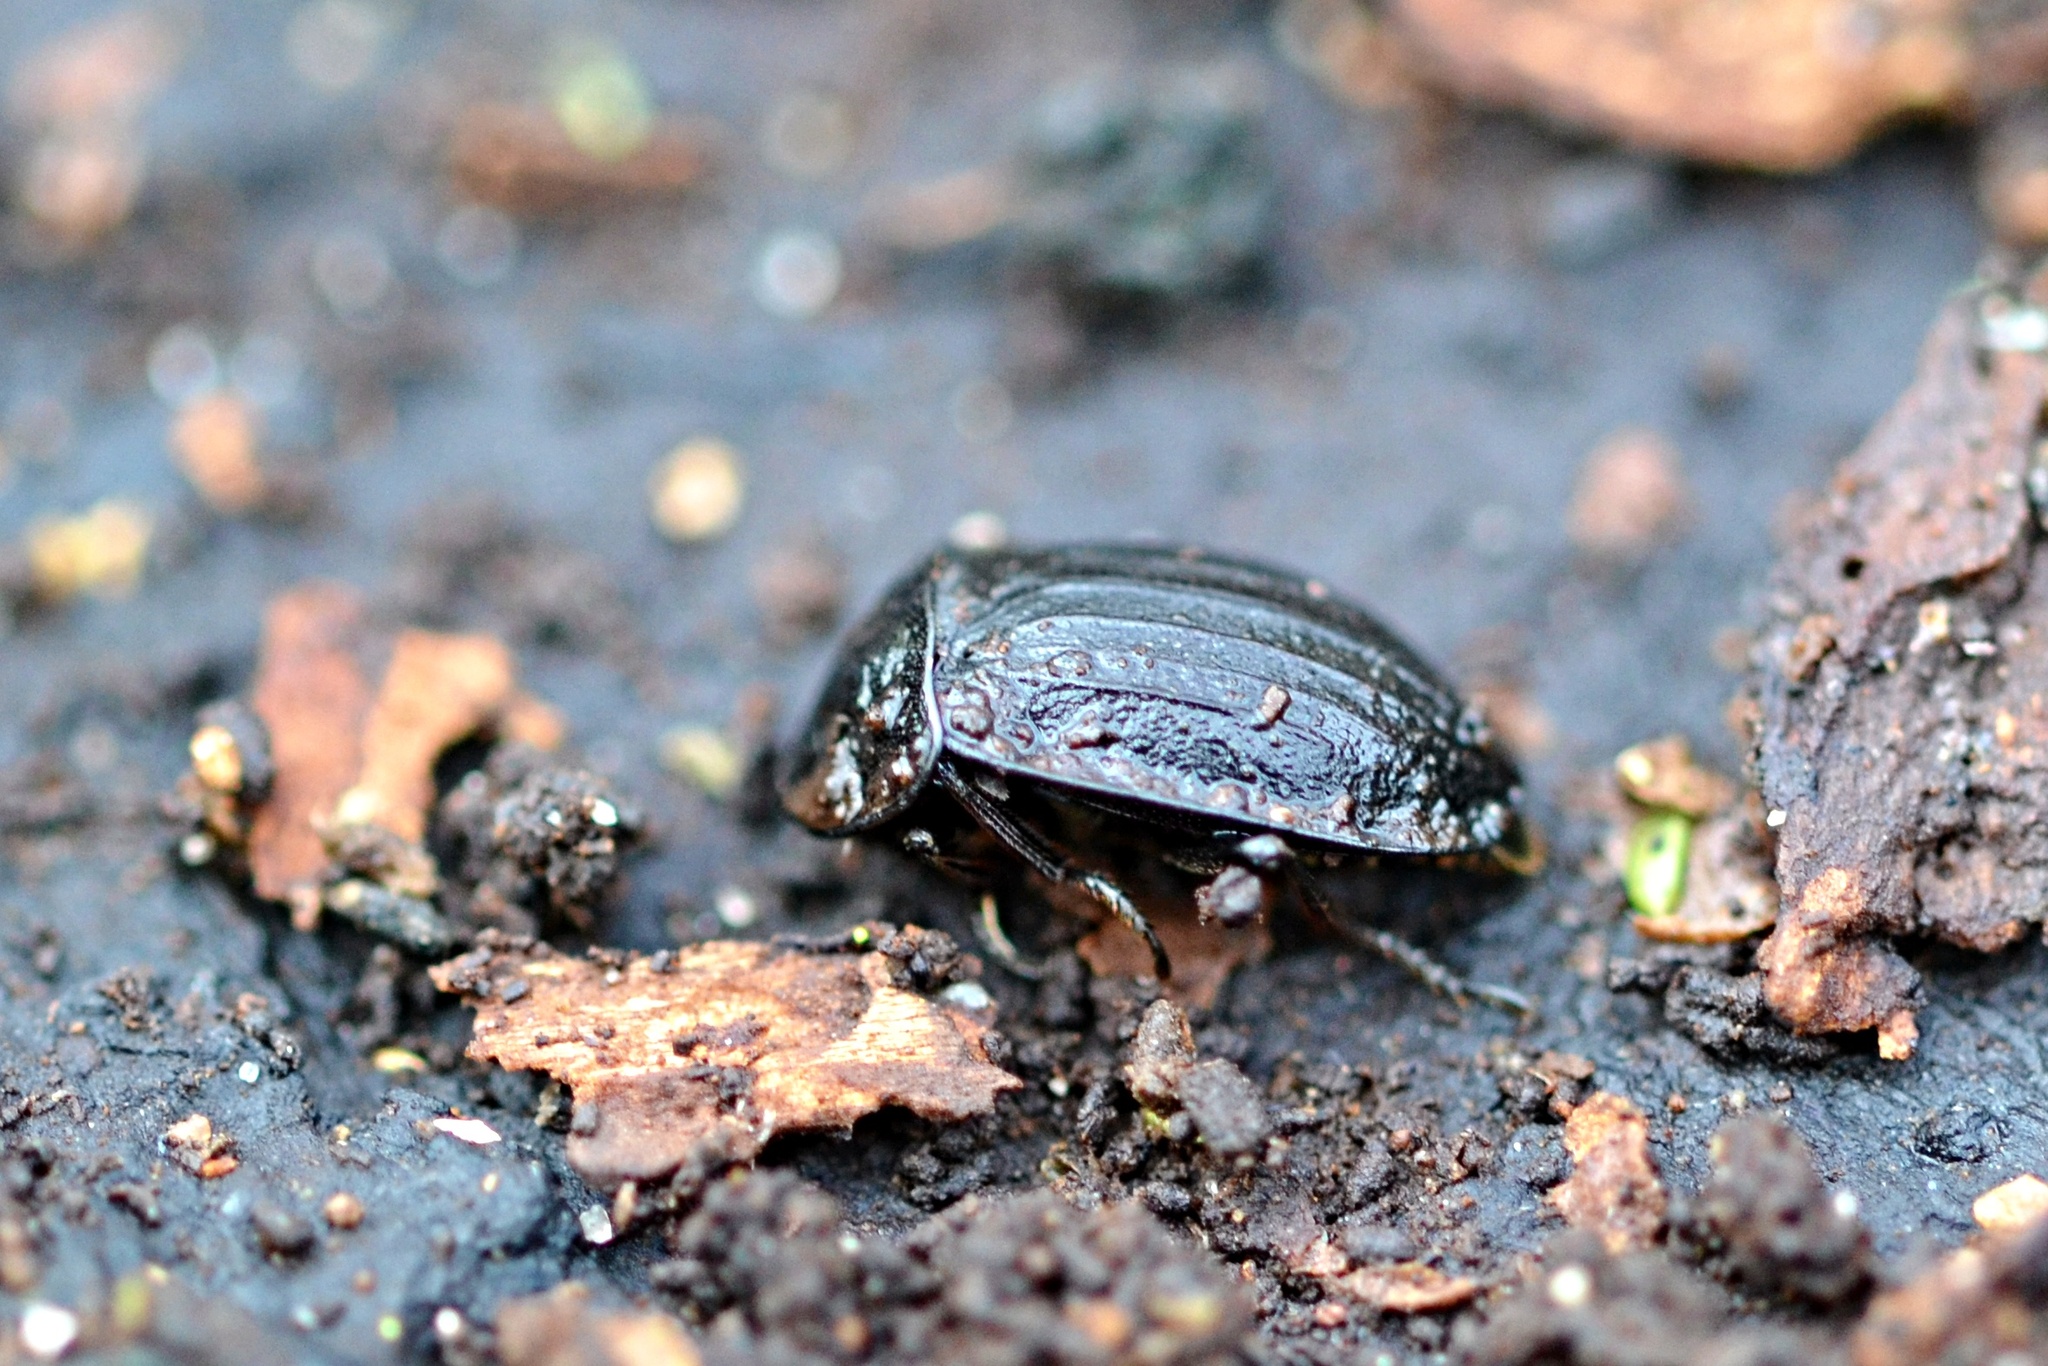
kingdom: Animalia
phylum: Arthropoda
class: Insecta
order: Coleoptera
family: Staphylinidae
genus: Silpha
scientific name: Silpha atrata
